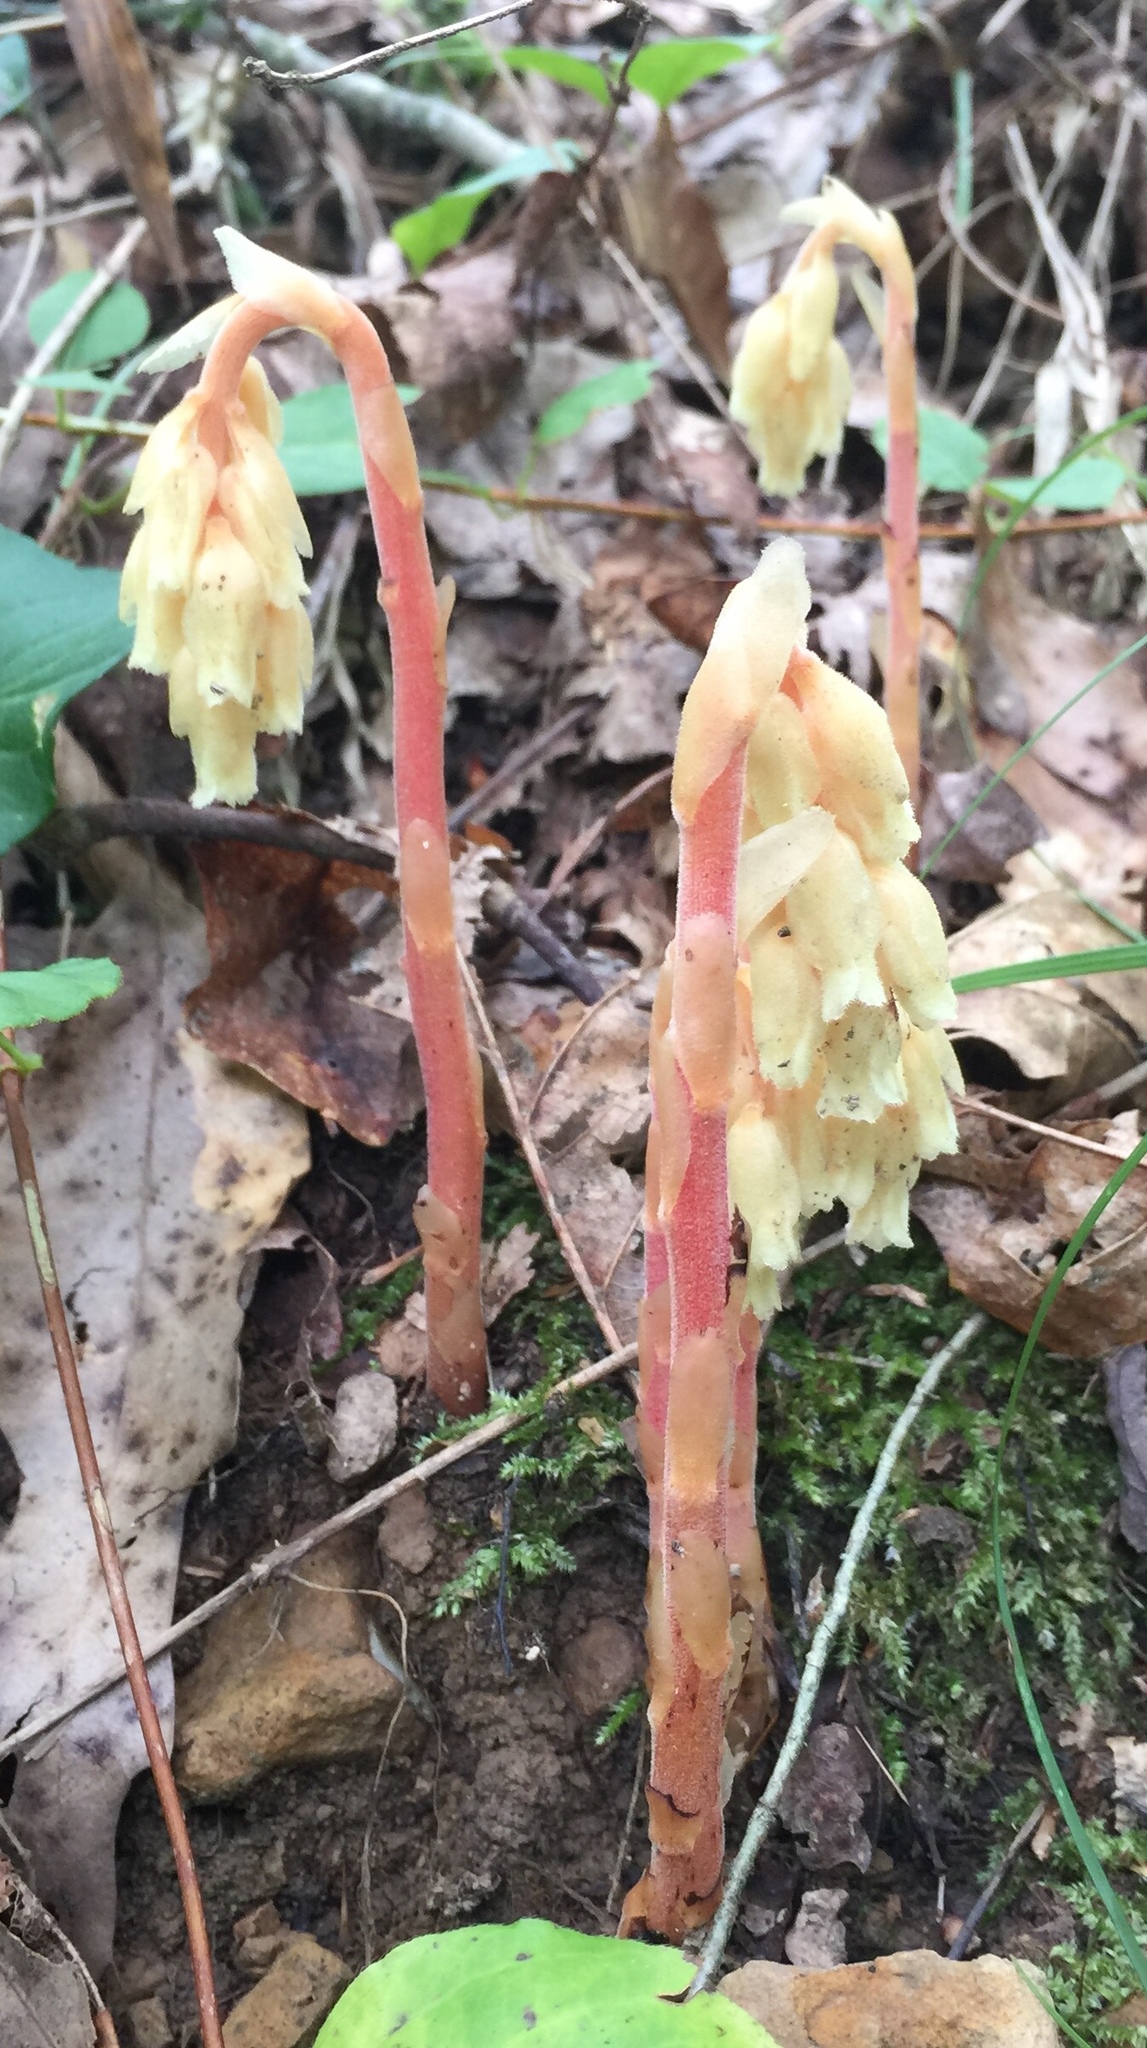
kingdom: Plantae
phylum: Tracheophyta
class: Magnoliopsida
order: Ericales
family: Ericaceae
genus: Hypopitys
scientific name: Hypopitys monotropa
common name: Yellow bird's-nest
